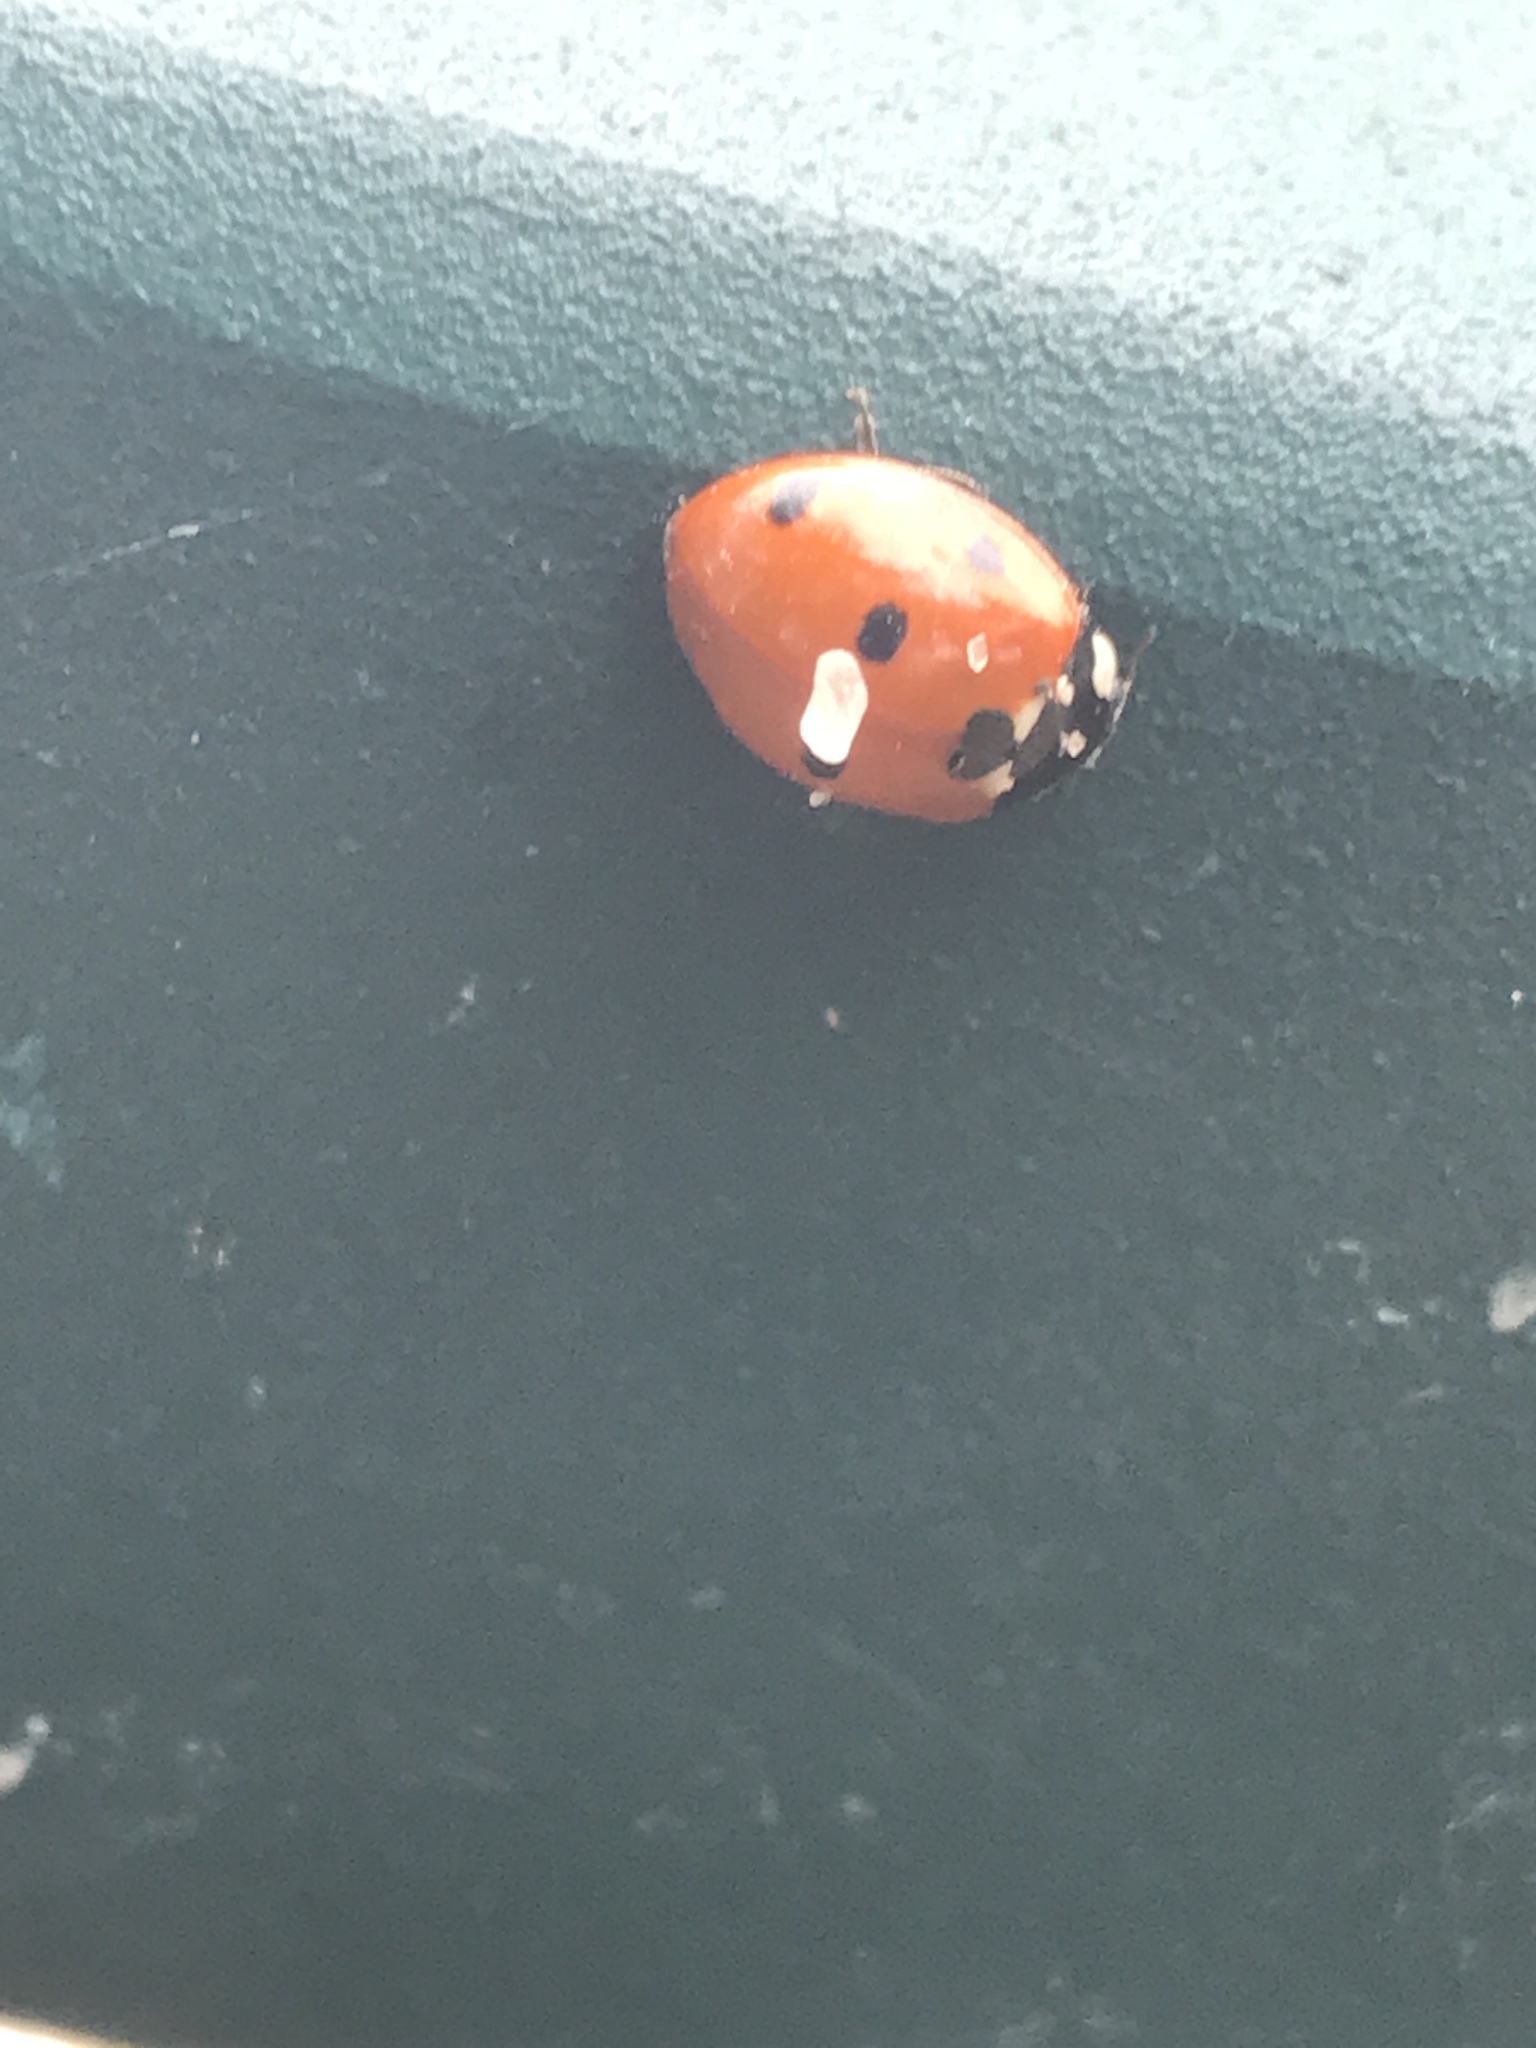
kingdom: Animalia
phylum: Arthropoda
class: Insecta
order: Coleoptera
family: Coccinellidae
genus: Coccinella
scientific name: Coccinella septempunctata
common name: Sevenspotted lady beetle
